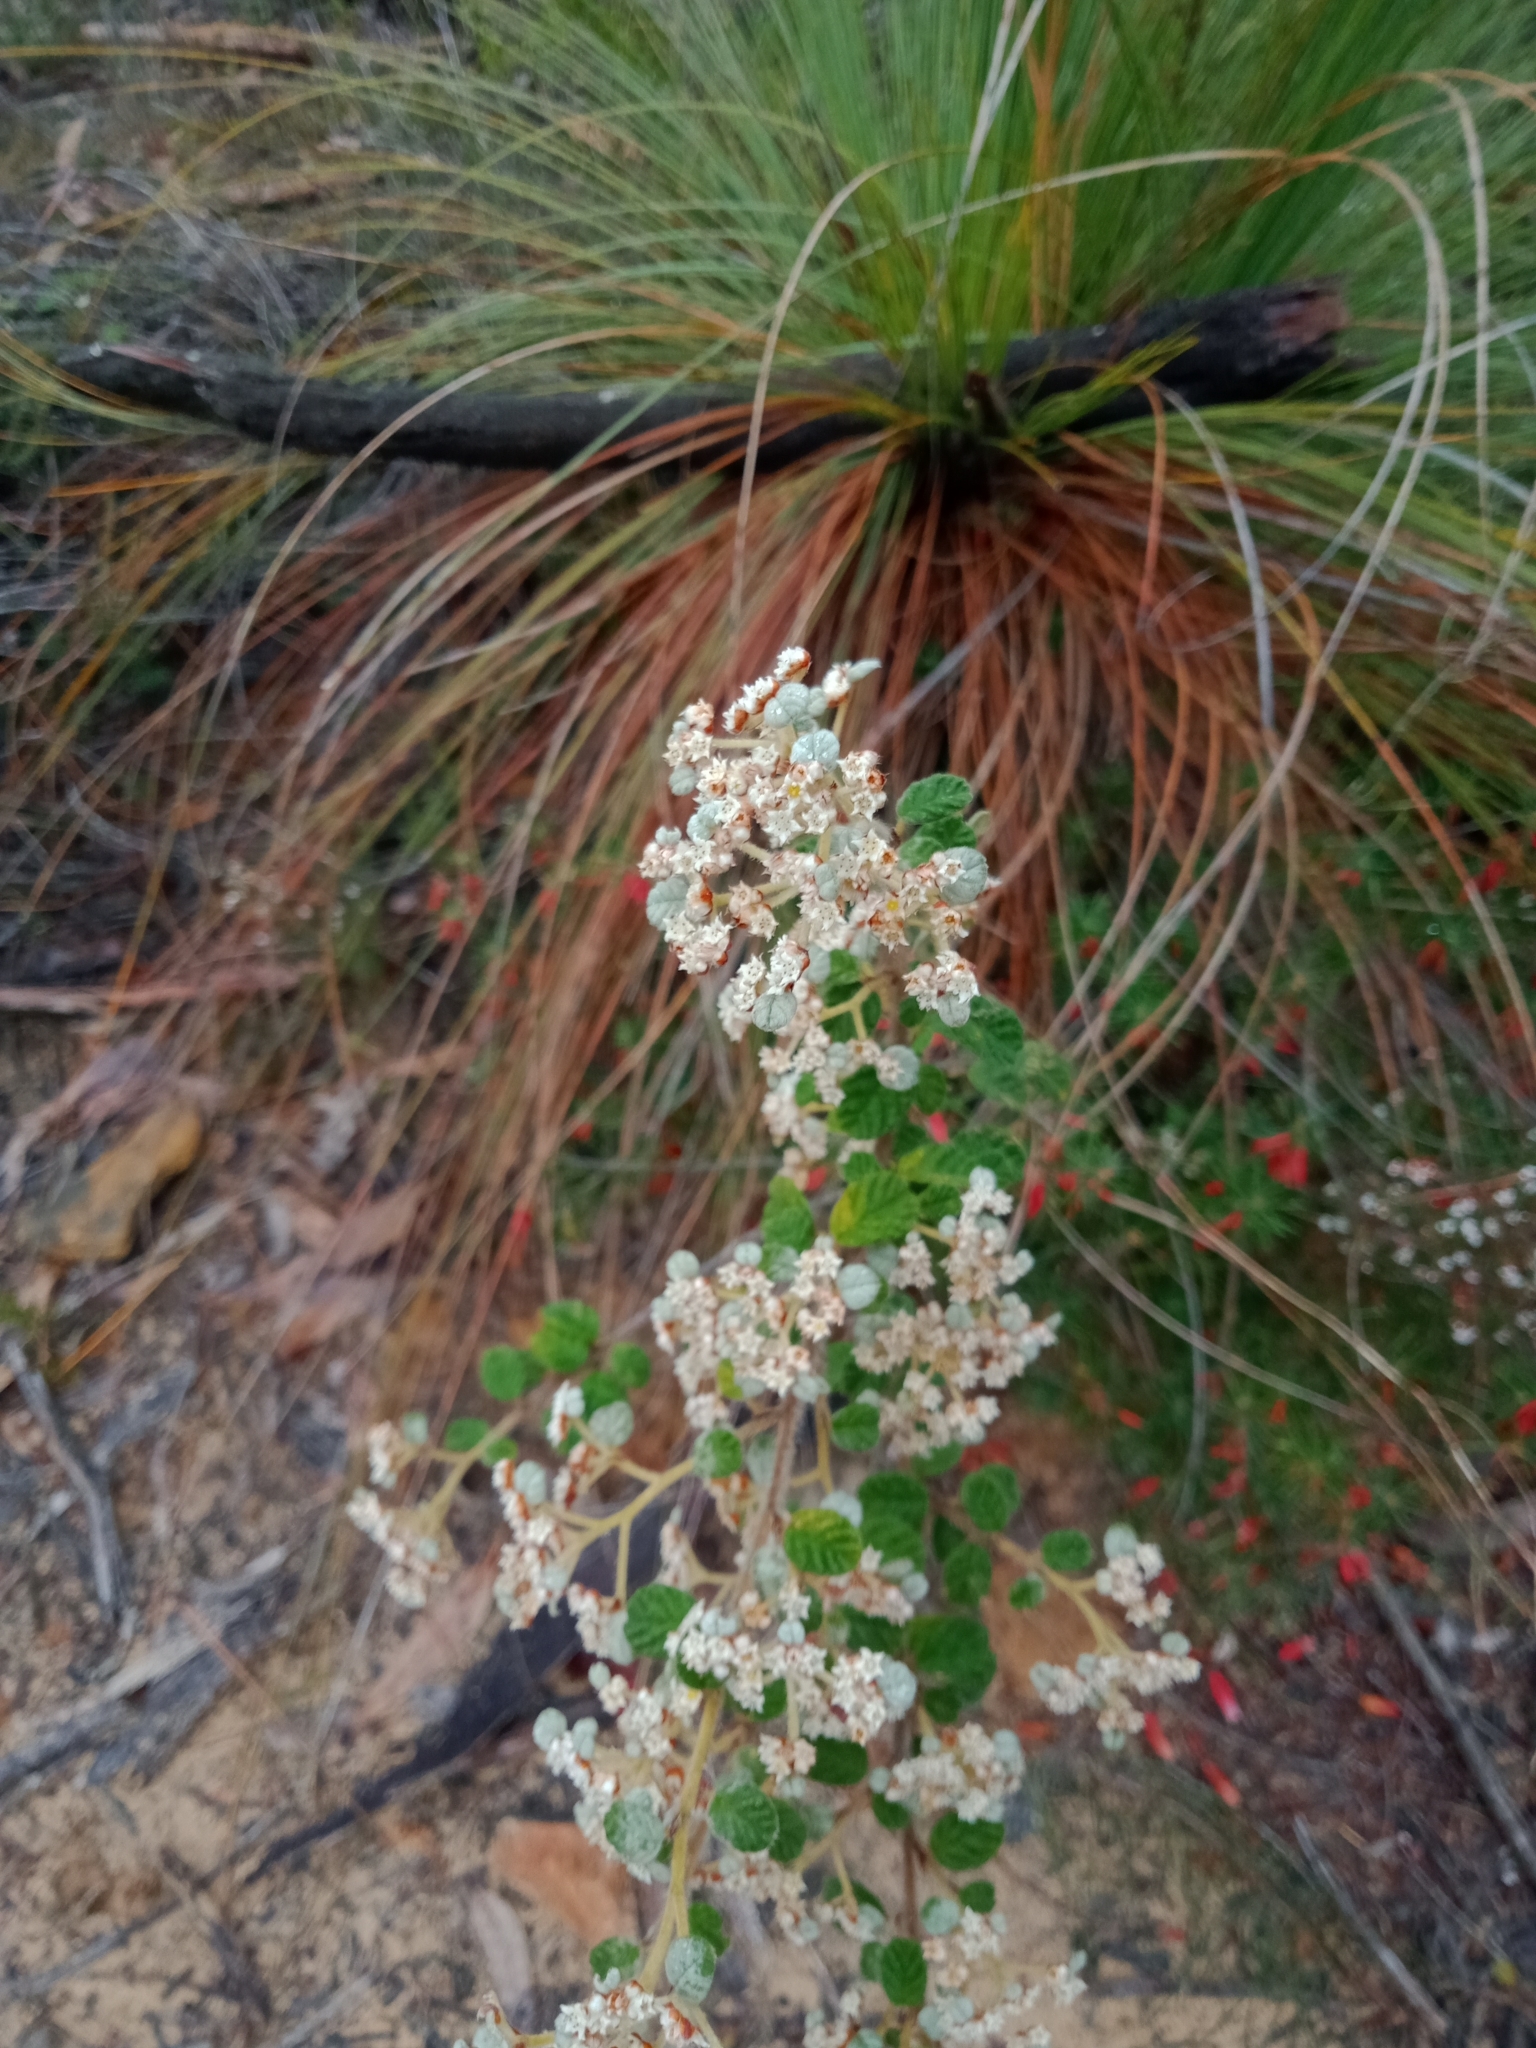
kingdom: Plantae
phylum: Tracheophyta
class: Magnoliopsida
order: Rosales
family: Rhamnaceae
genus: Spyridium
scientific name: Spyridium parvifolium
